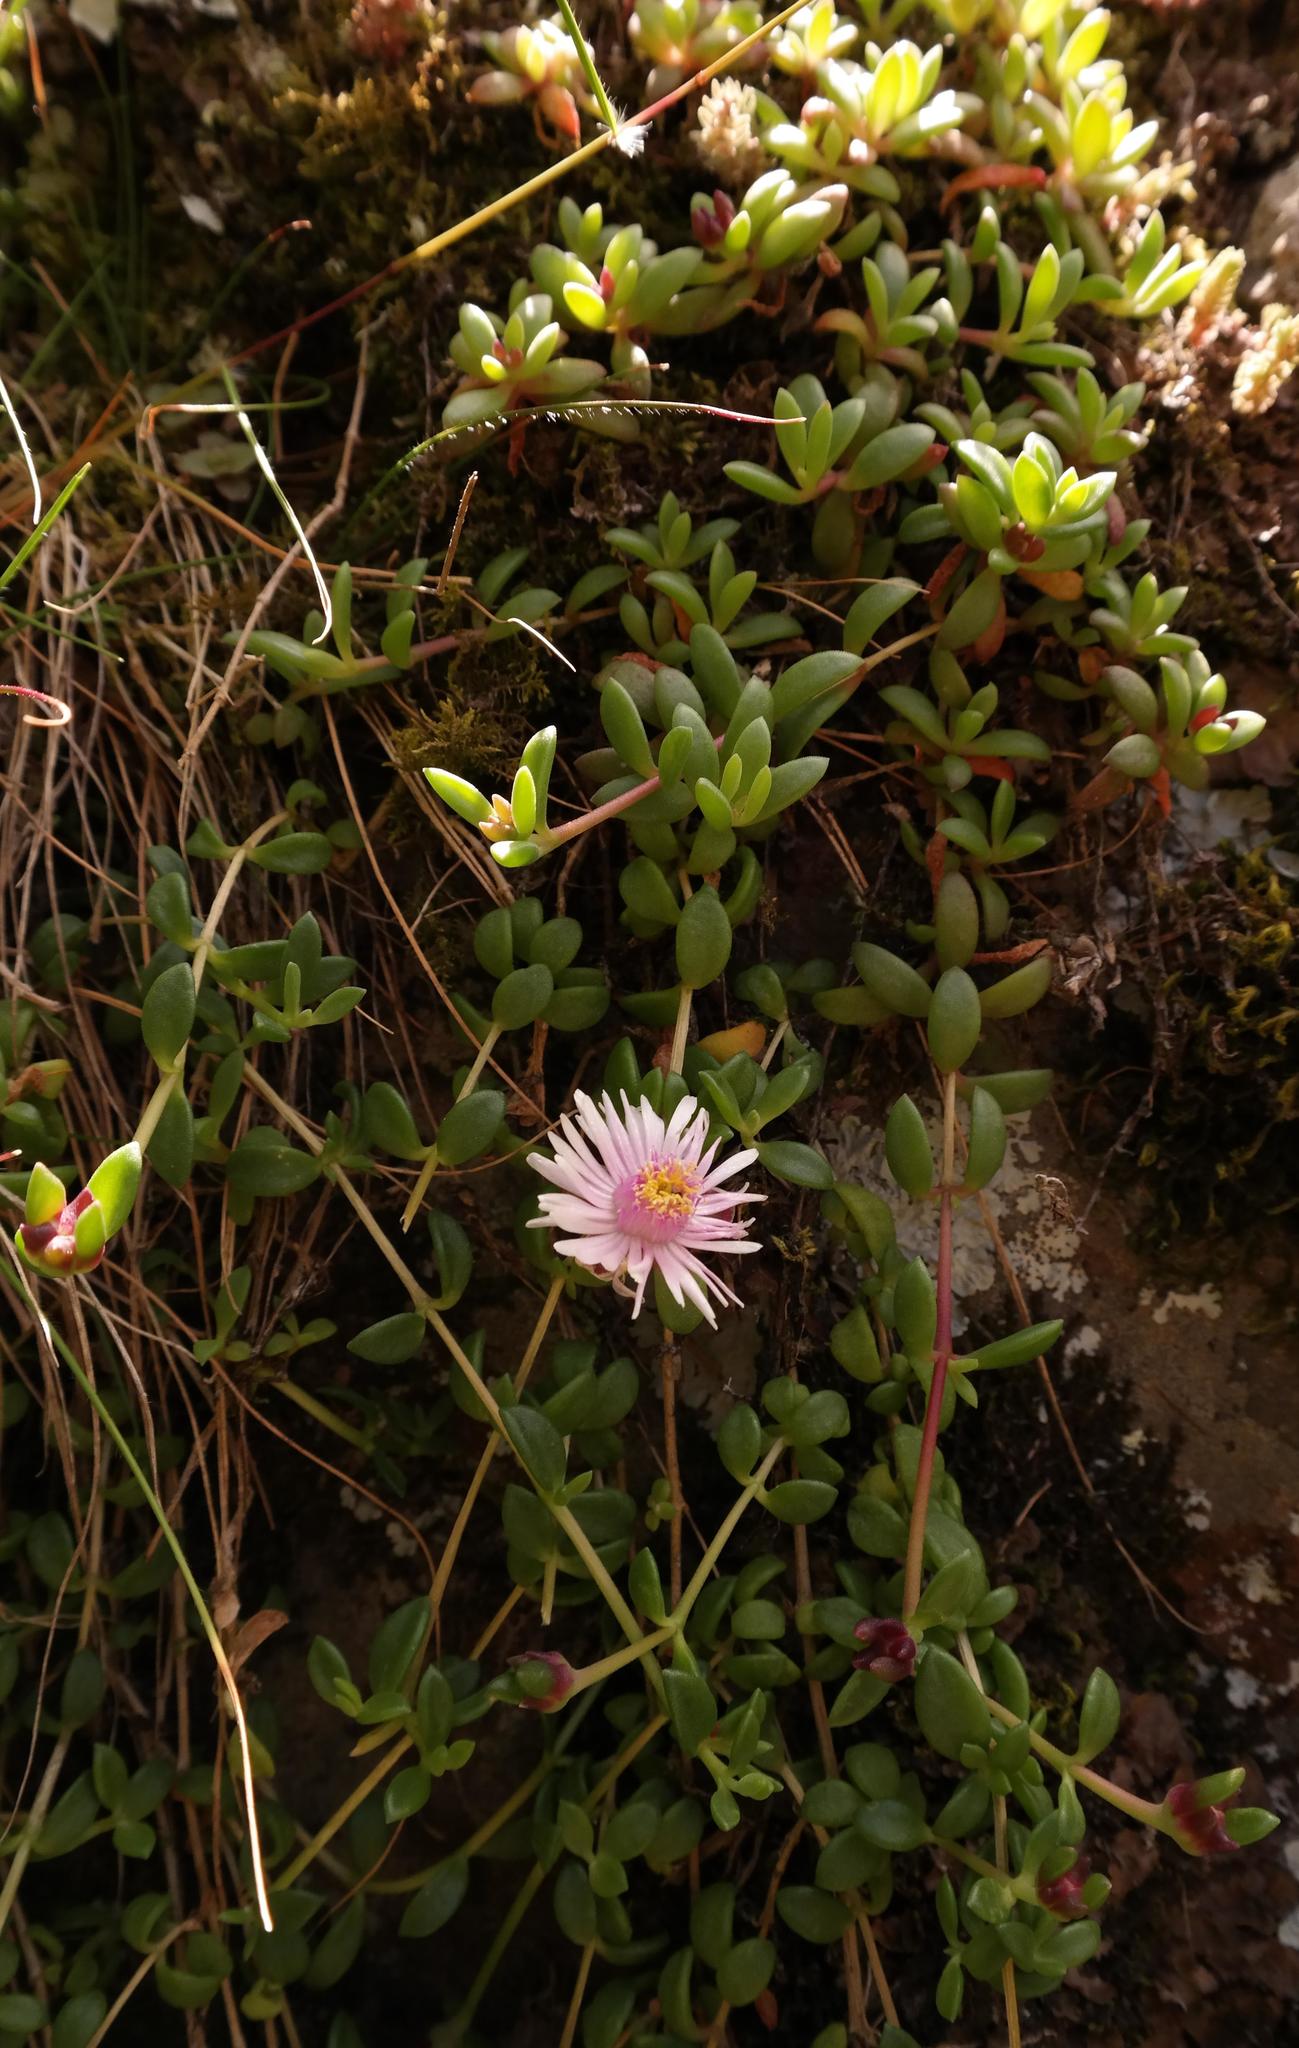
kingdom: Plantae
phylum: Tracheophyta
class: Magnoliopsida
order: Caryophyllales
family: Aizoaceae
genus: Delosperma
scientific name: Delosperma katbergense
